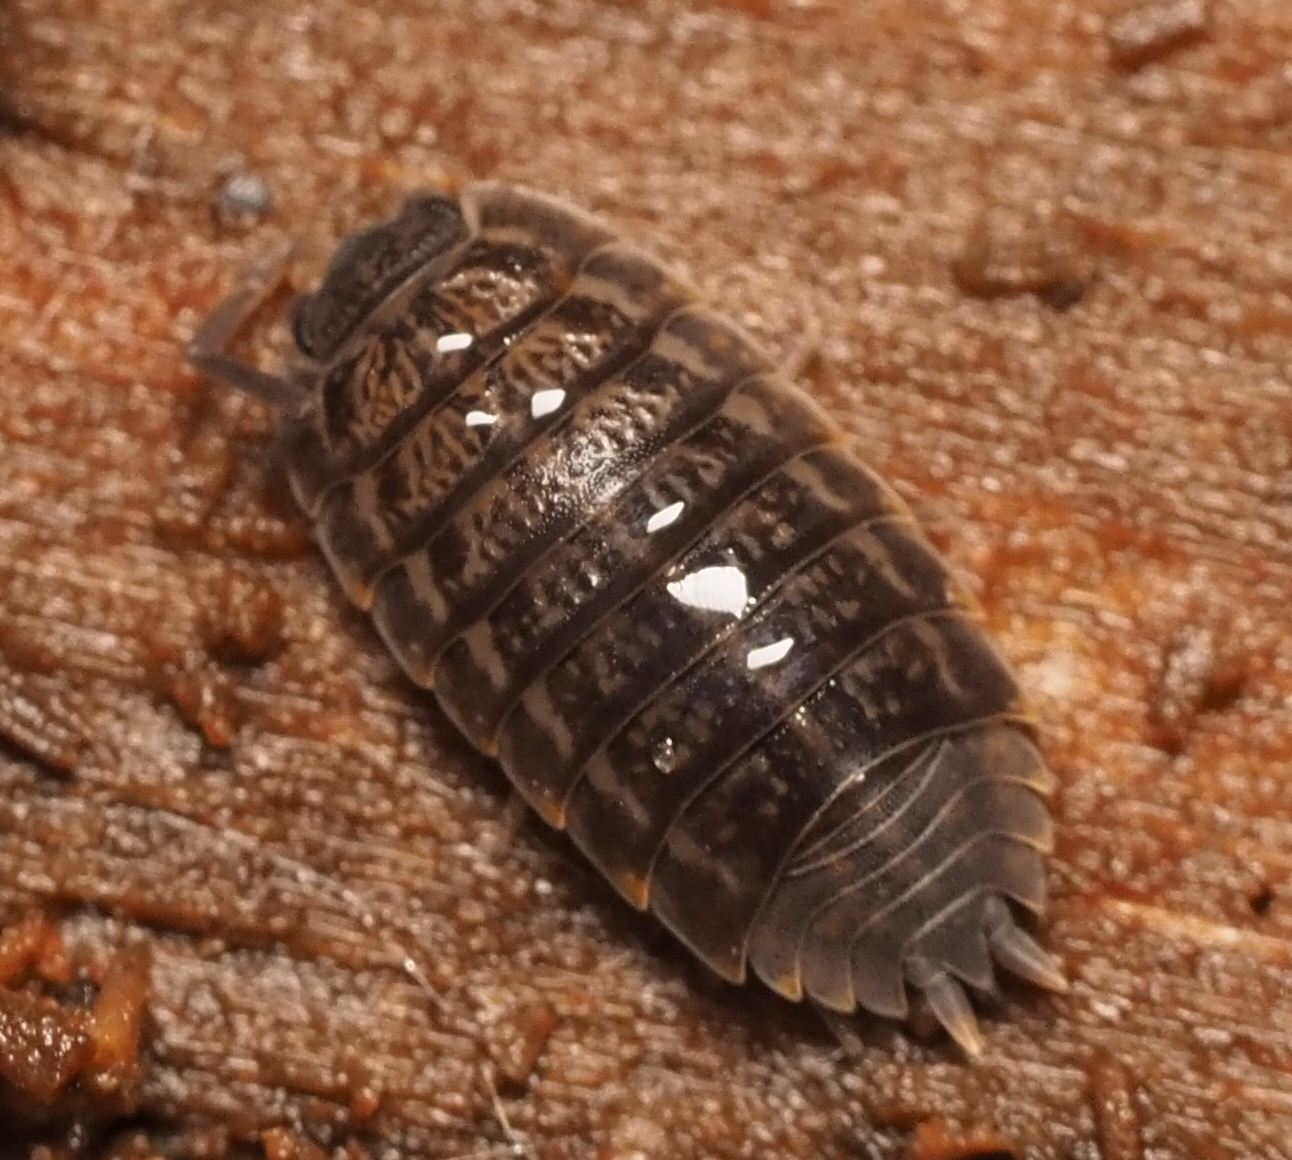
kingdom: Animalia
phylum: Arthropoda
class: Malacostraca
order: Isopoda
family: Trachelipodidae
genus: Trachelipus
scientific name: Trachelipus rathkii
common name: Isopod
